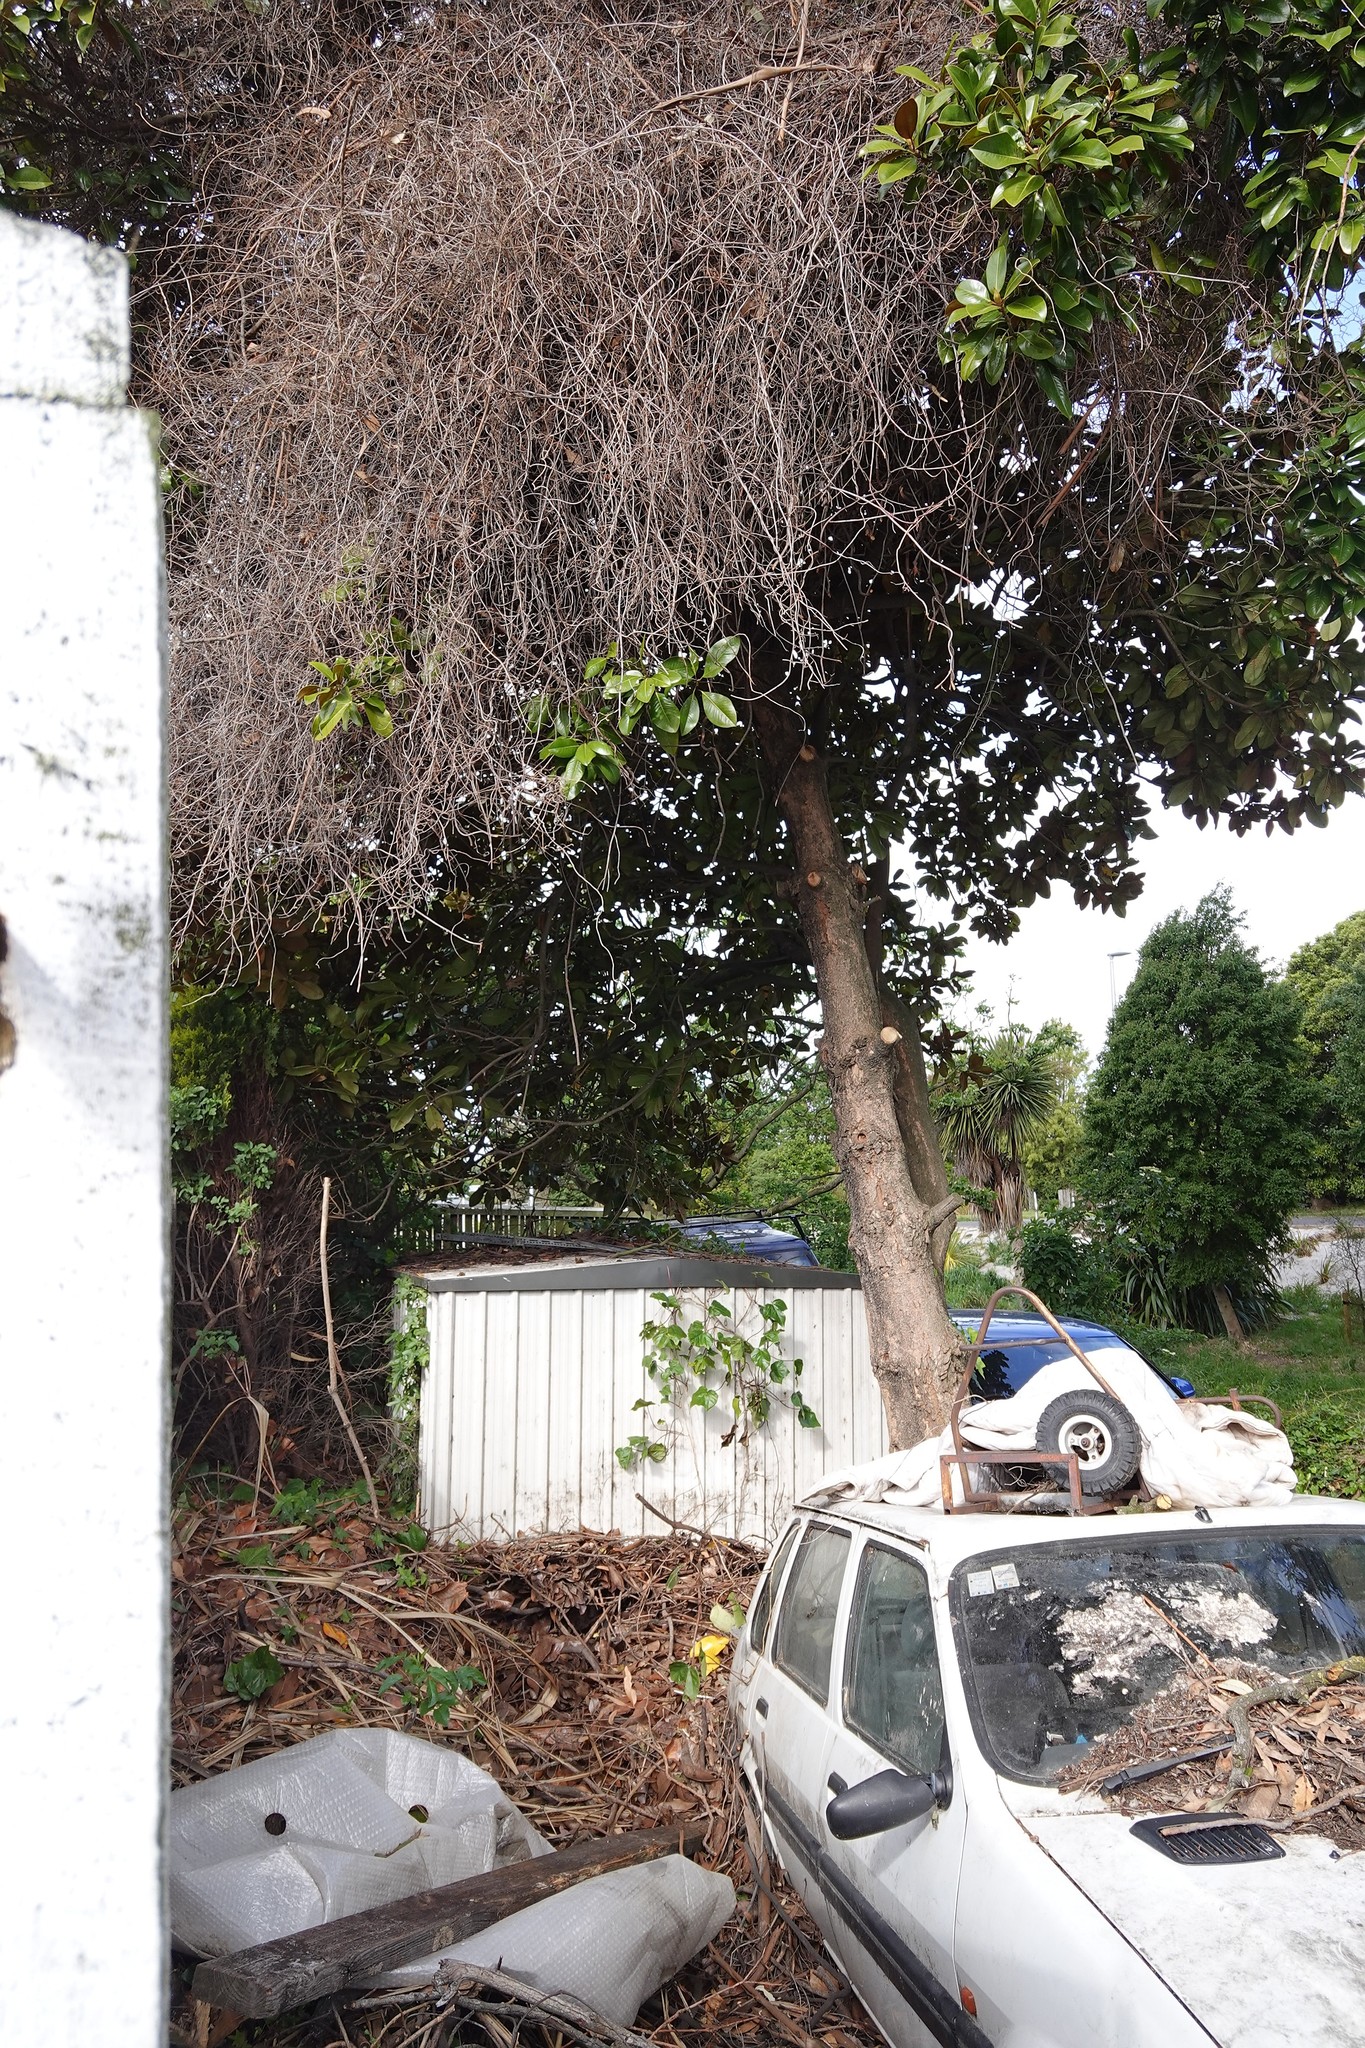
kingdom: Plantae
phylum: Tracheophyta
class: Magnoliopsida
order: Caryophyllales
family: Polygonaceae
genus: Muehlenbeckia
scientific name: Muehlenbeckia australis
